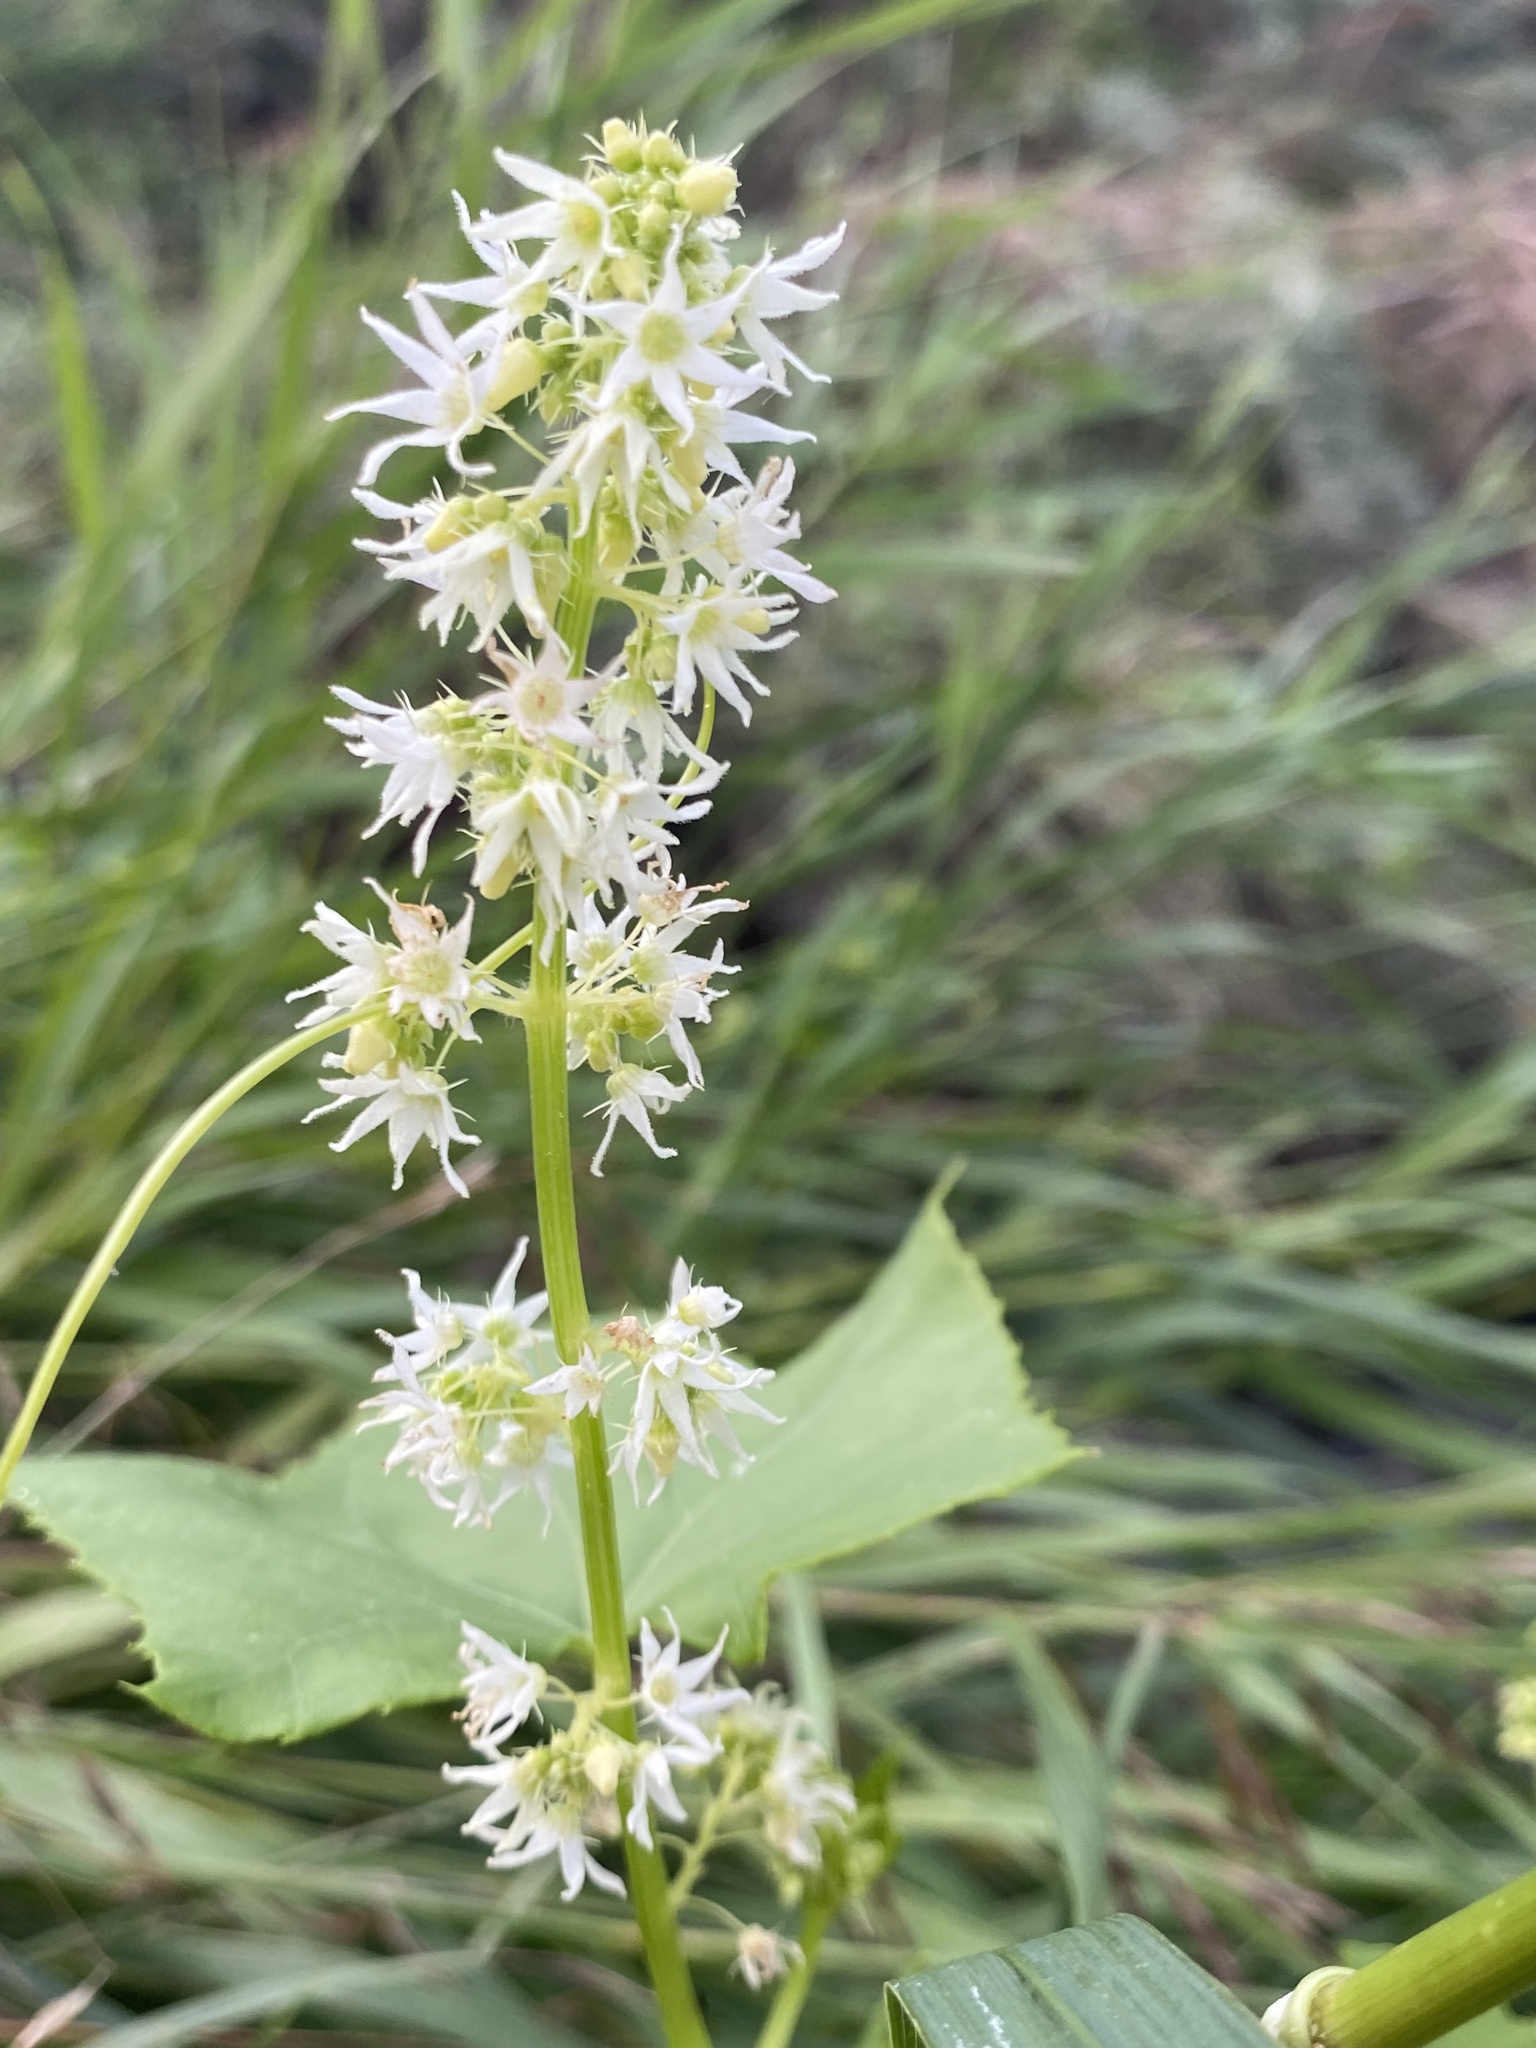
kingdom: Plantae
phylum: Tracheophyta
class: Magnoliopsida
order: Cucurbitales
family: Cucurbitaceae
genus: Echinocystis
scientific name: Echinocystis lobata
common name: Wild cucumber
